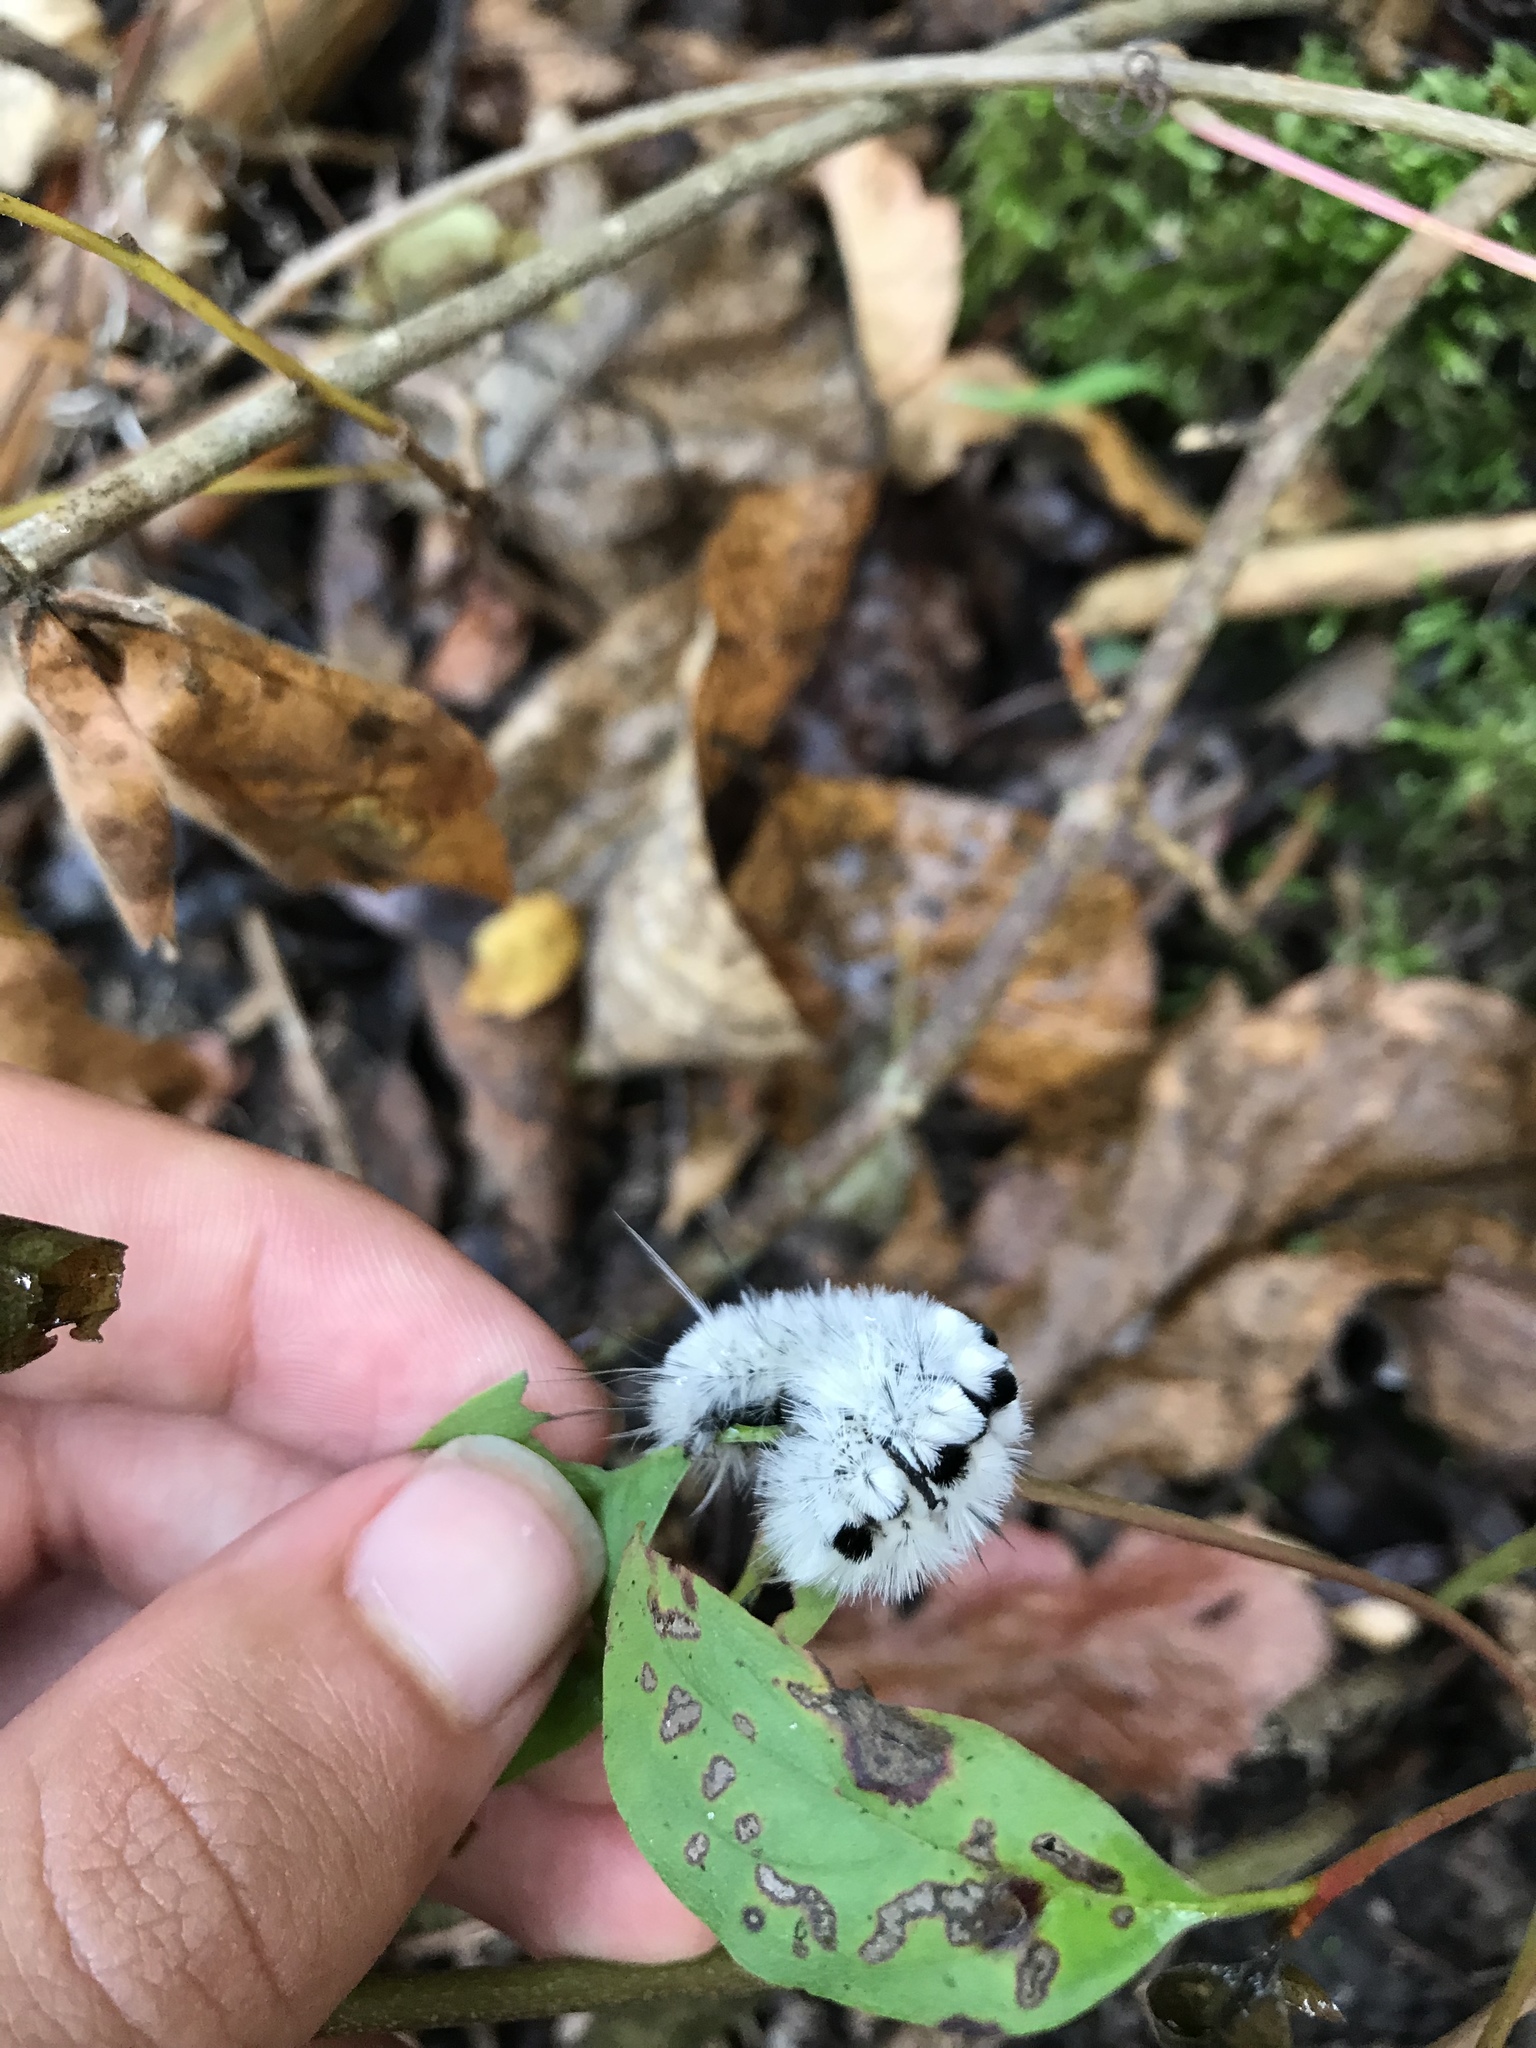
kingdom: Animalia
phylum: Arthropoda
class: Insecta
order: Lepidoptera
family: Erebidae
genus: Lophocampa
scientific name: Lophocampa caryae
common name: Hickory tussock moth
